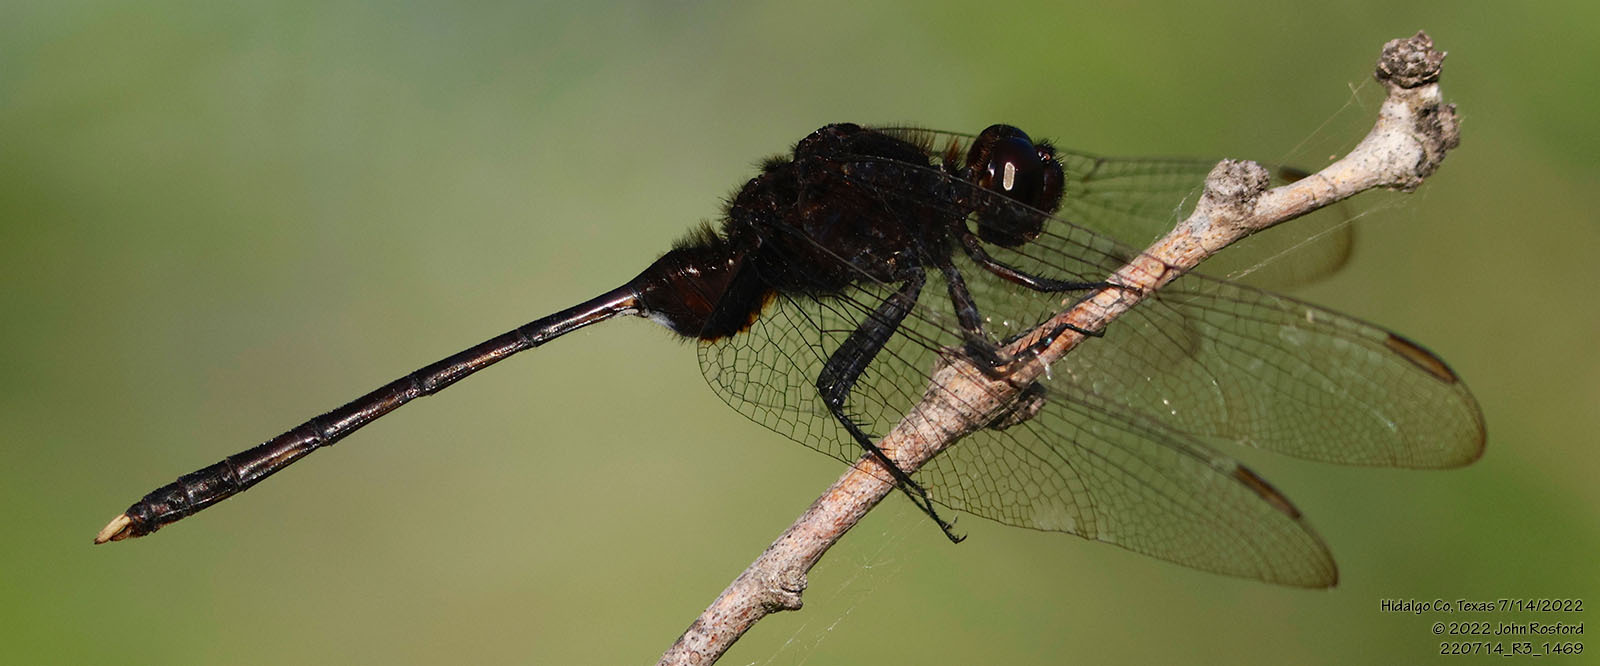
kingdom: Animalia
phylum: Arthropoda
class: Insecta
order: Odonata
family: Libellulidae
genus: Erythemis
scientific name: Erythemis plebeja
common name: Pin-tailed pondhawk
